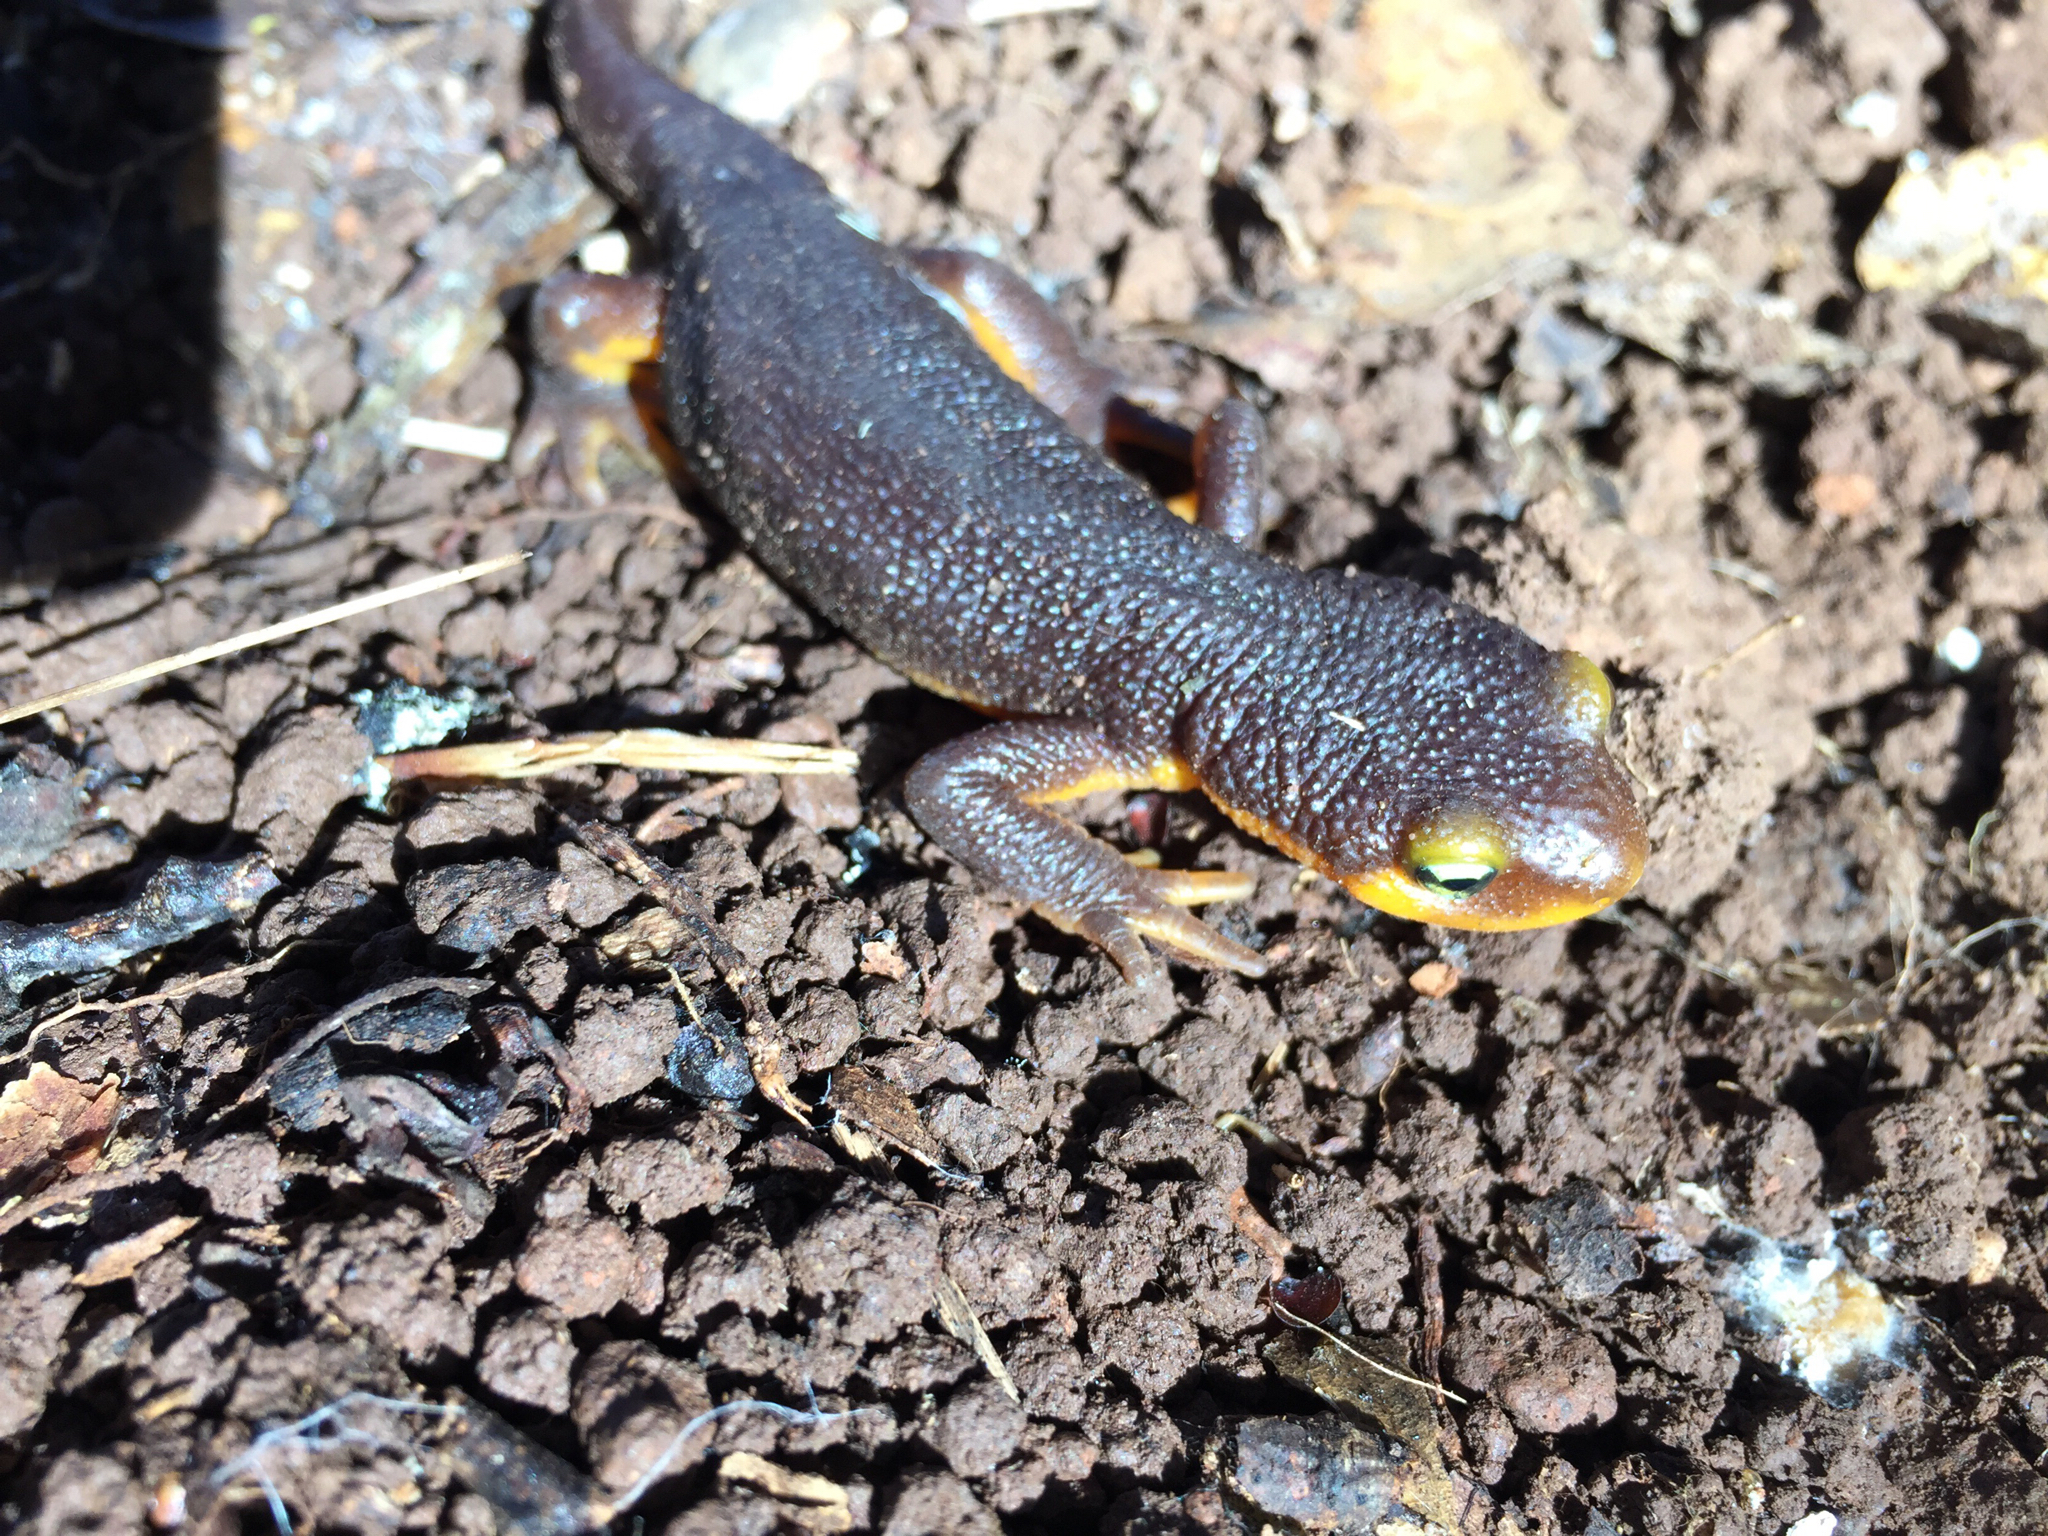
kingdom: Animalia
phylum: Chordata
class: Amphibia
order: Caudata
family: Salamandridae
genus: Taricha
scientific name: Taricha torosa
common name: California newt
